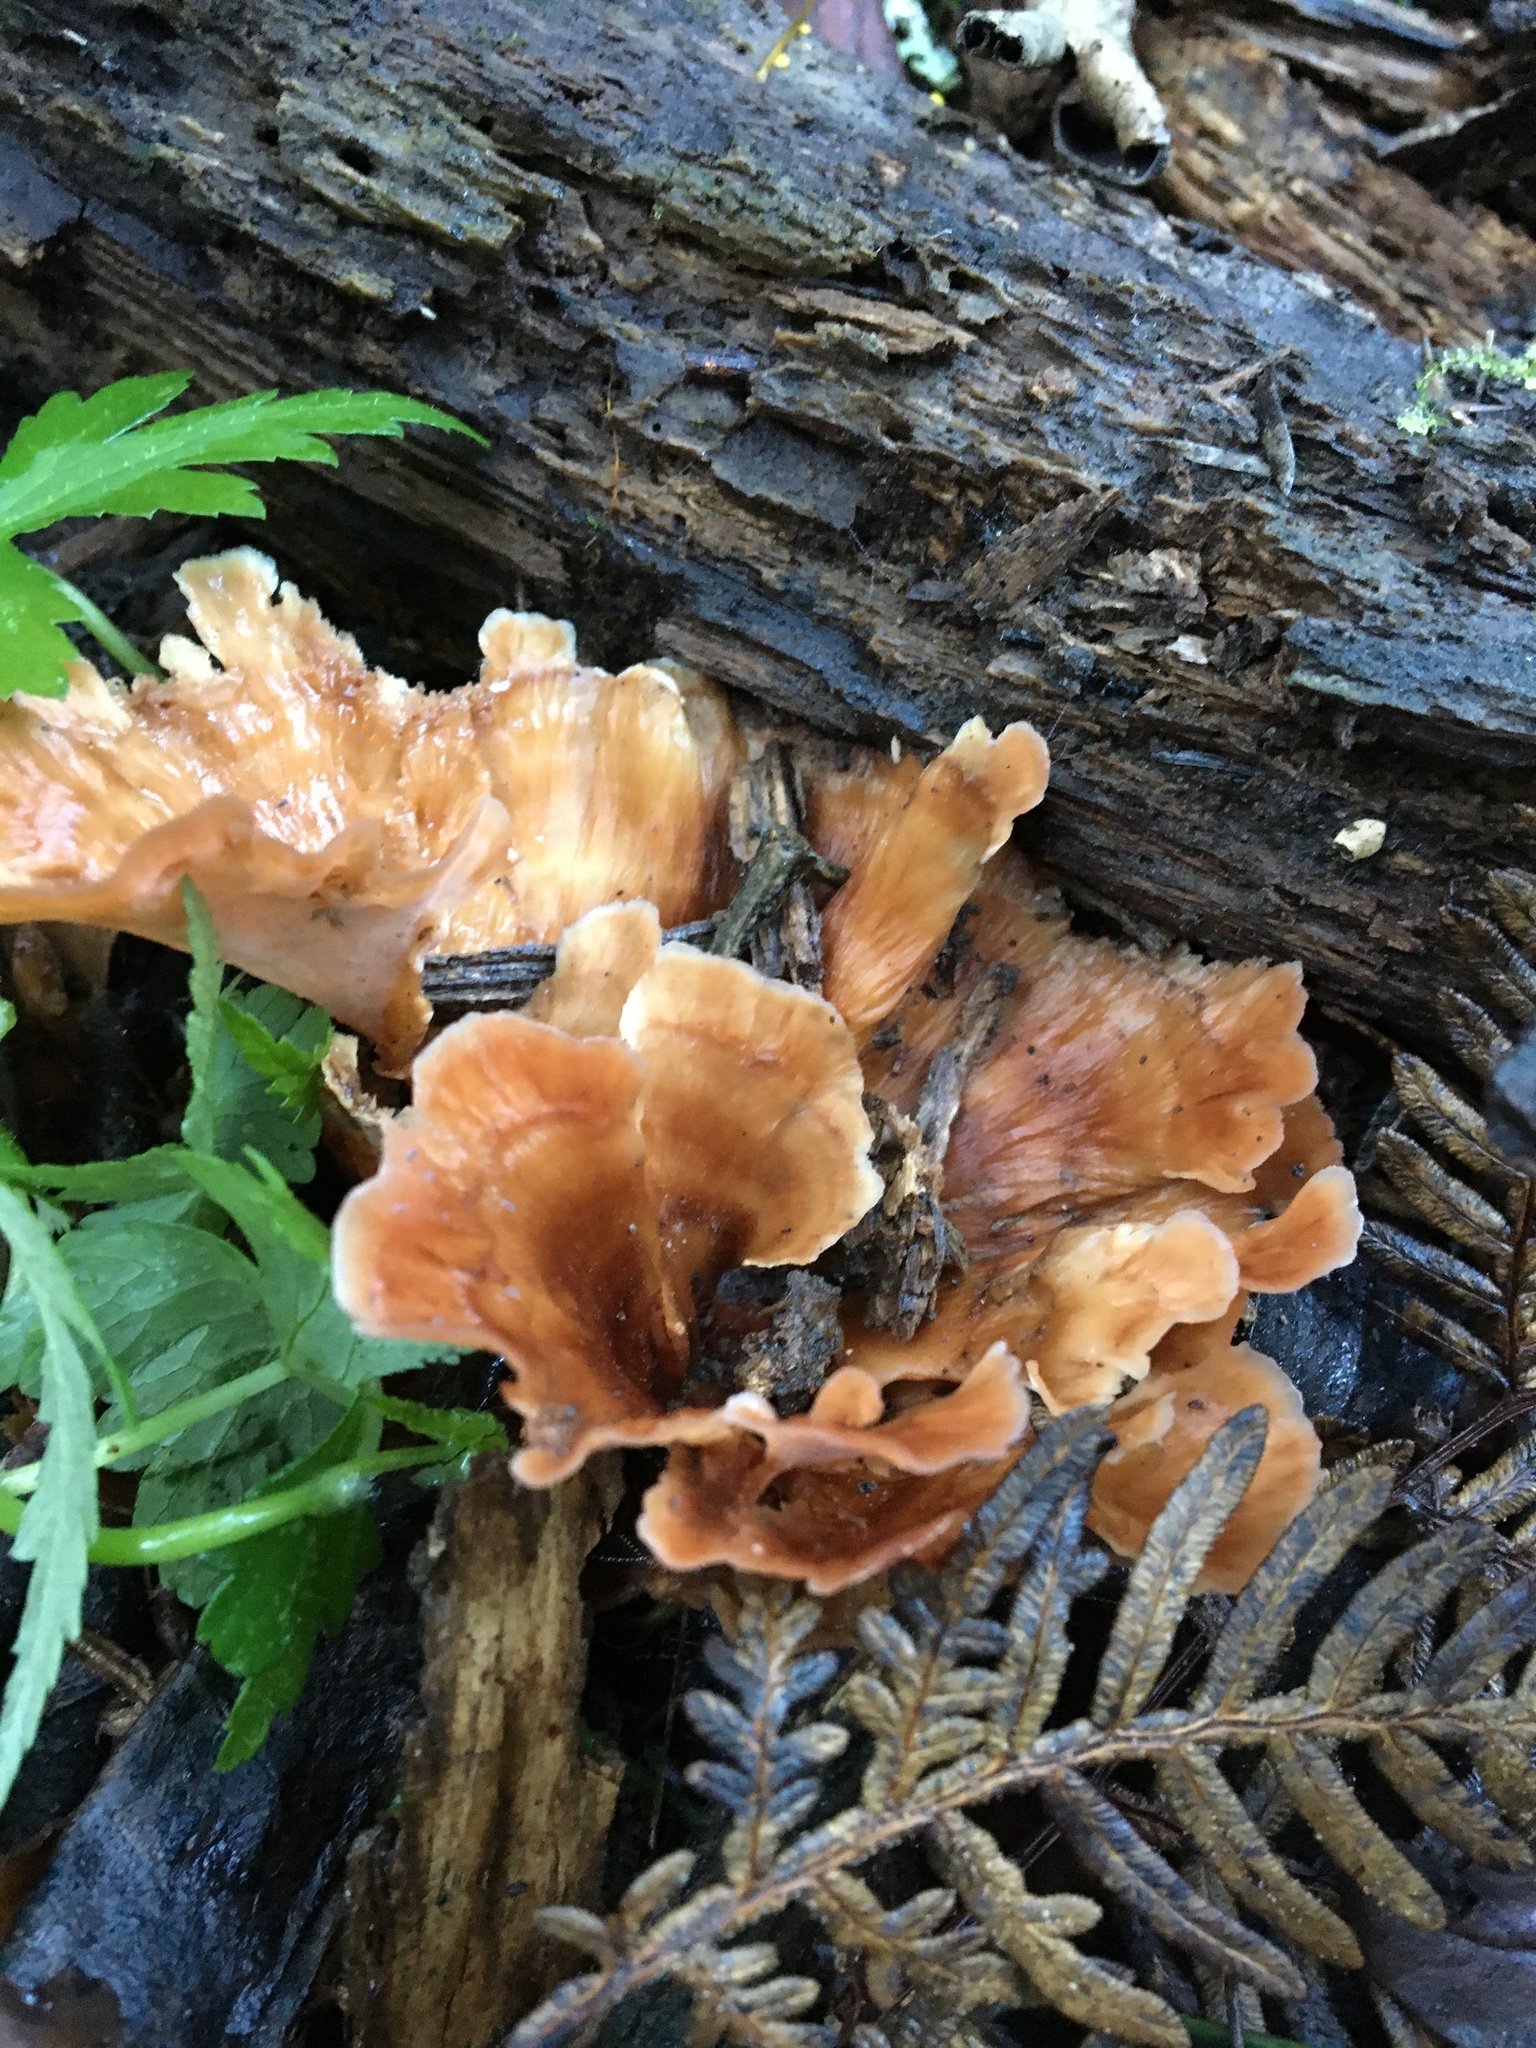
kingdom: Fungi
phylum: Basidiomycota
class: Agaricomycetes
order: Polyporales
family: Podoscyphaceae
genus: Podoscypha
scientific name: Podoscypha petalodes
